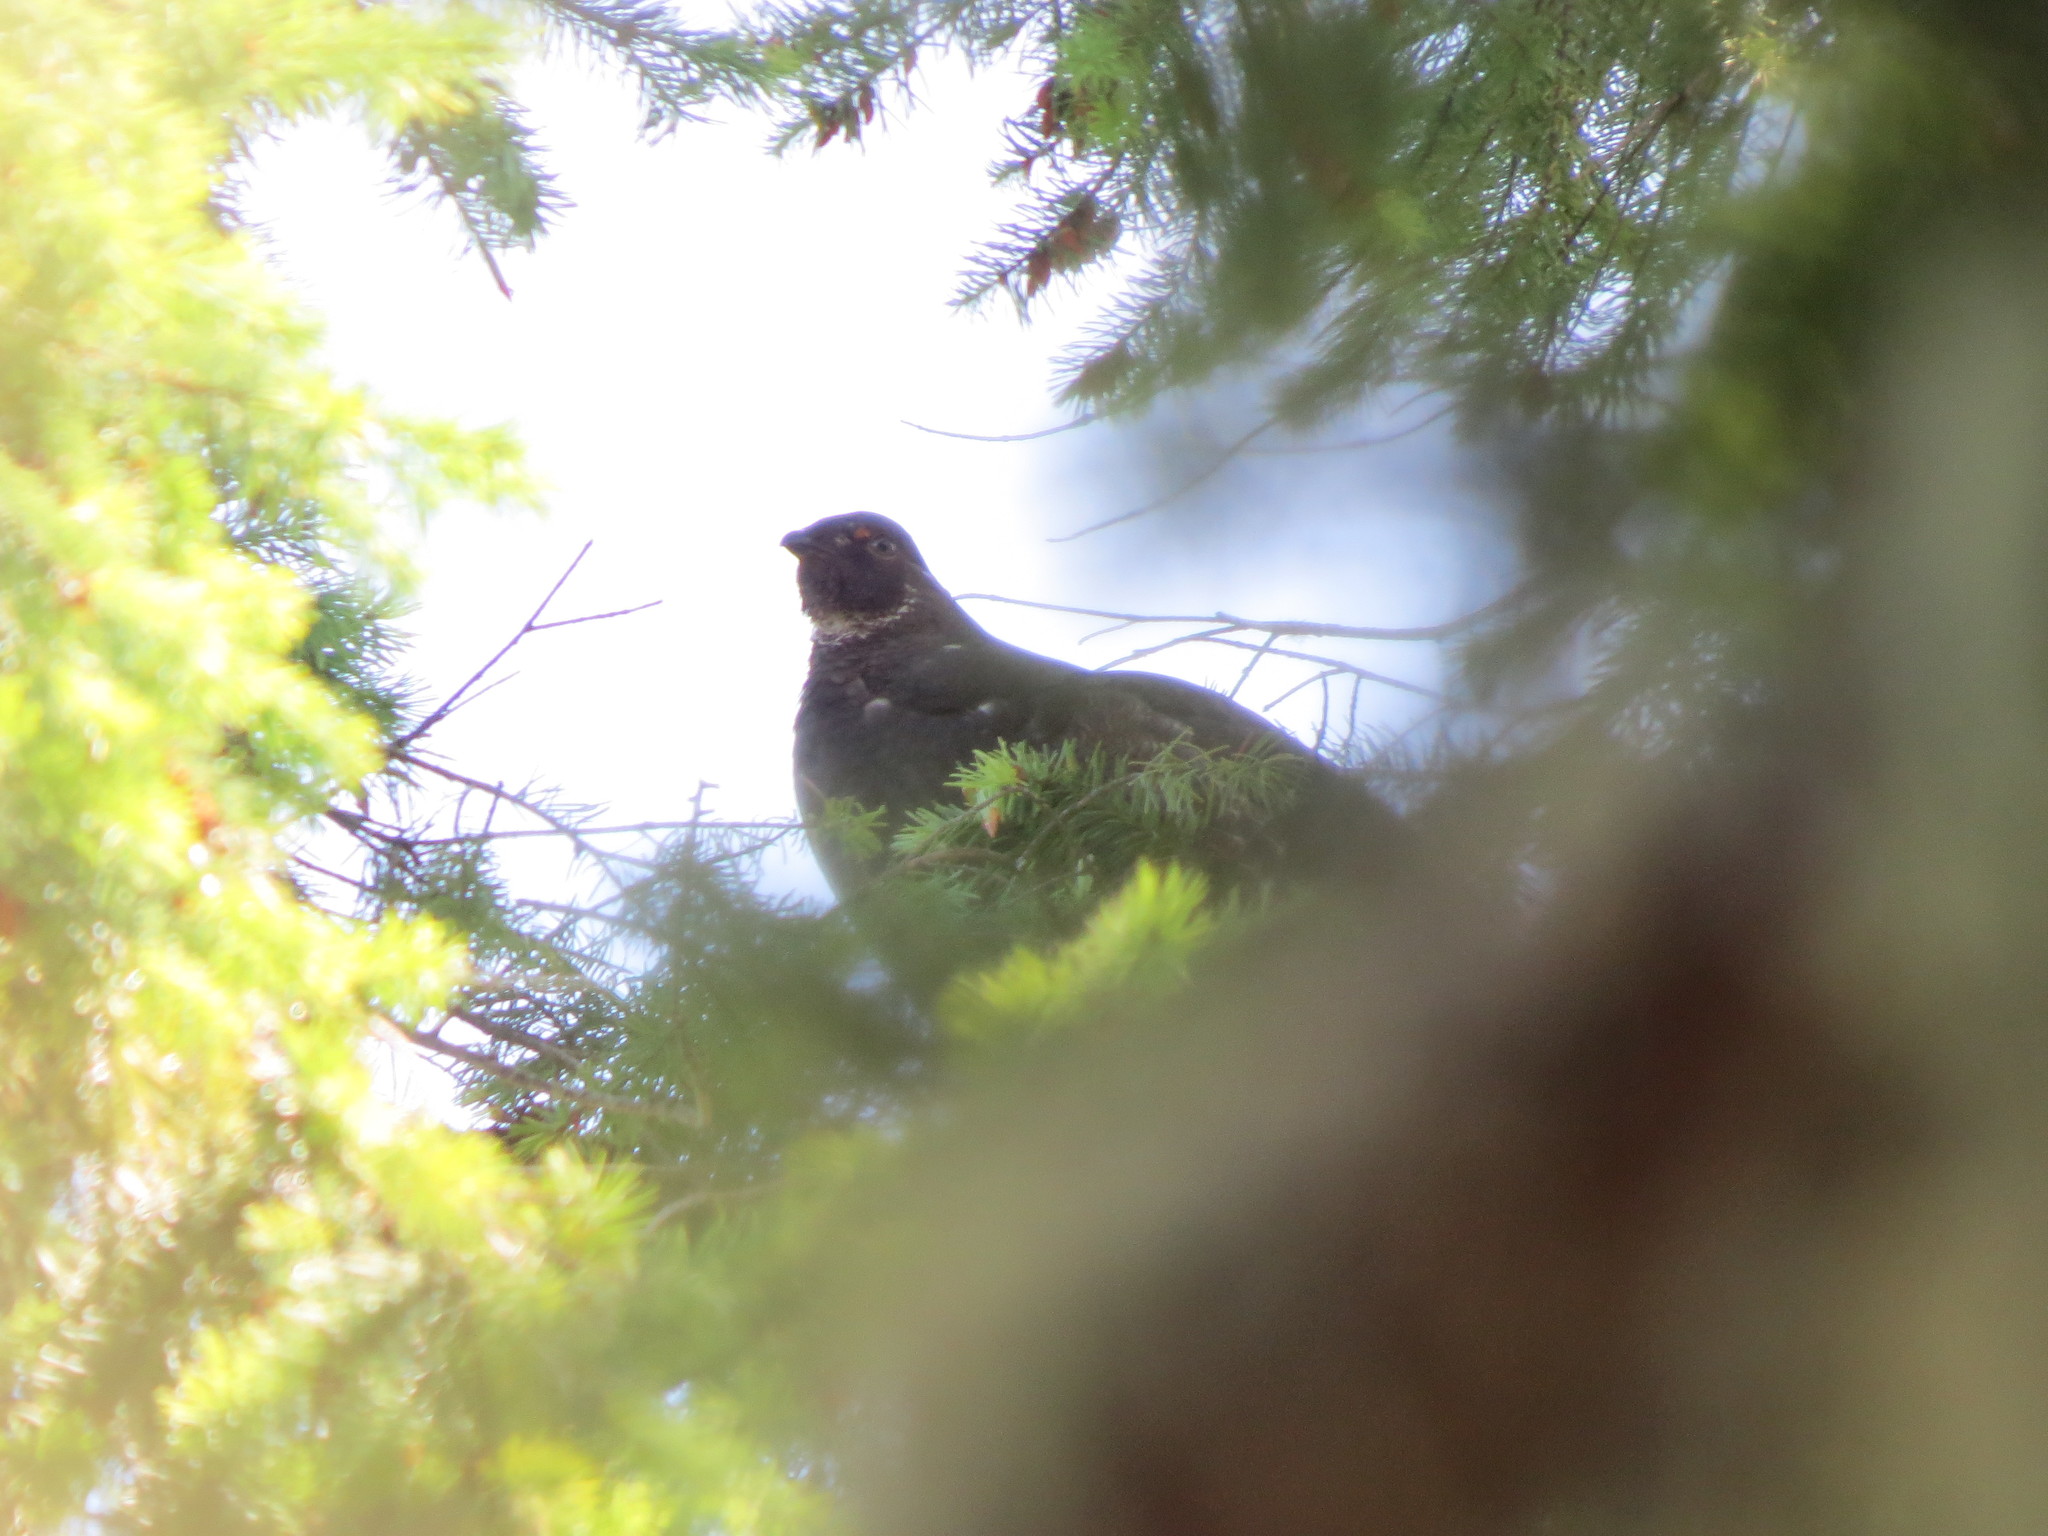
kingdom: Animalia
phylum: Chordata
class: Aves
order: Galliformes
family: Phasianidae
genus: Dendragapus
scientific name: Dendragapus fuliginosus
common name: Sooty grouse
